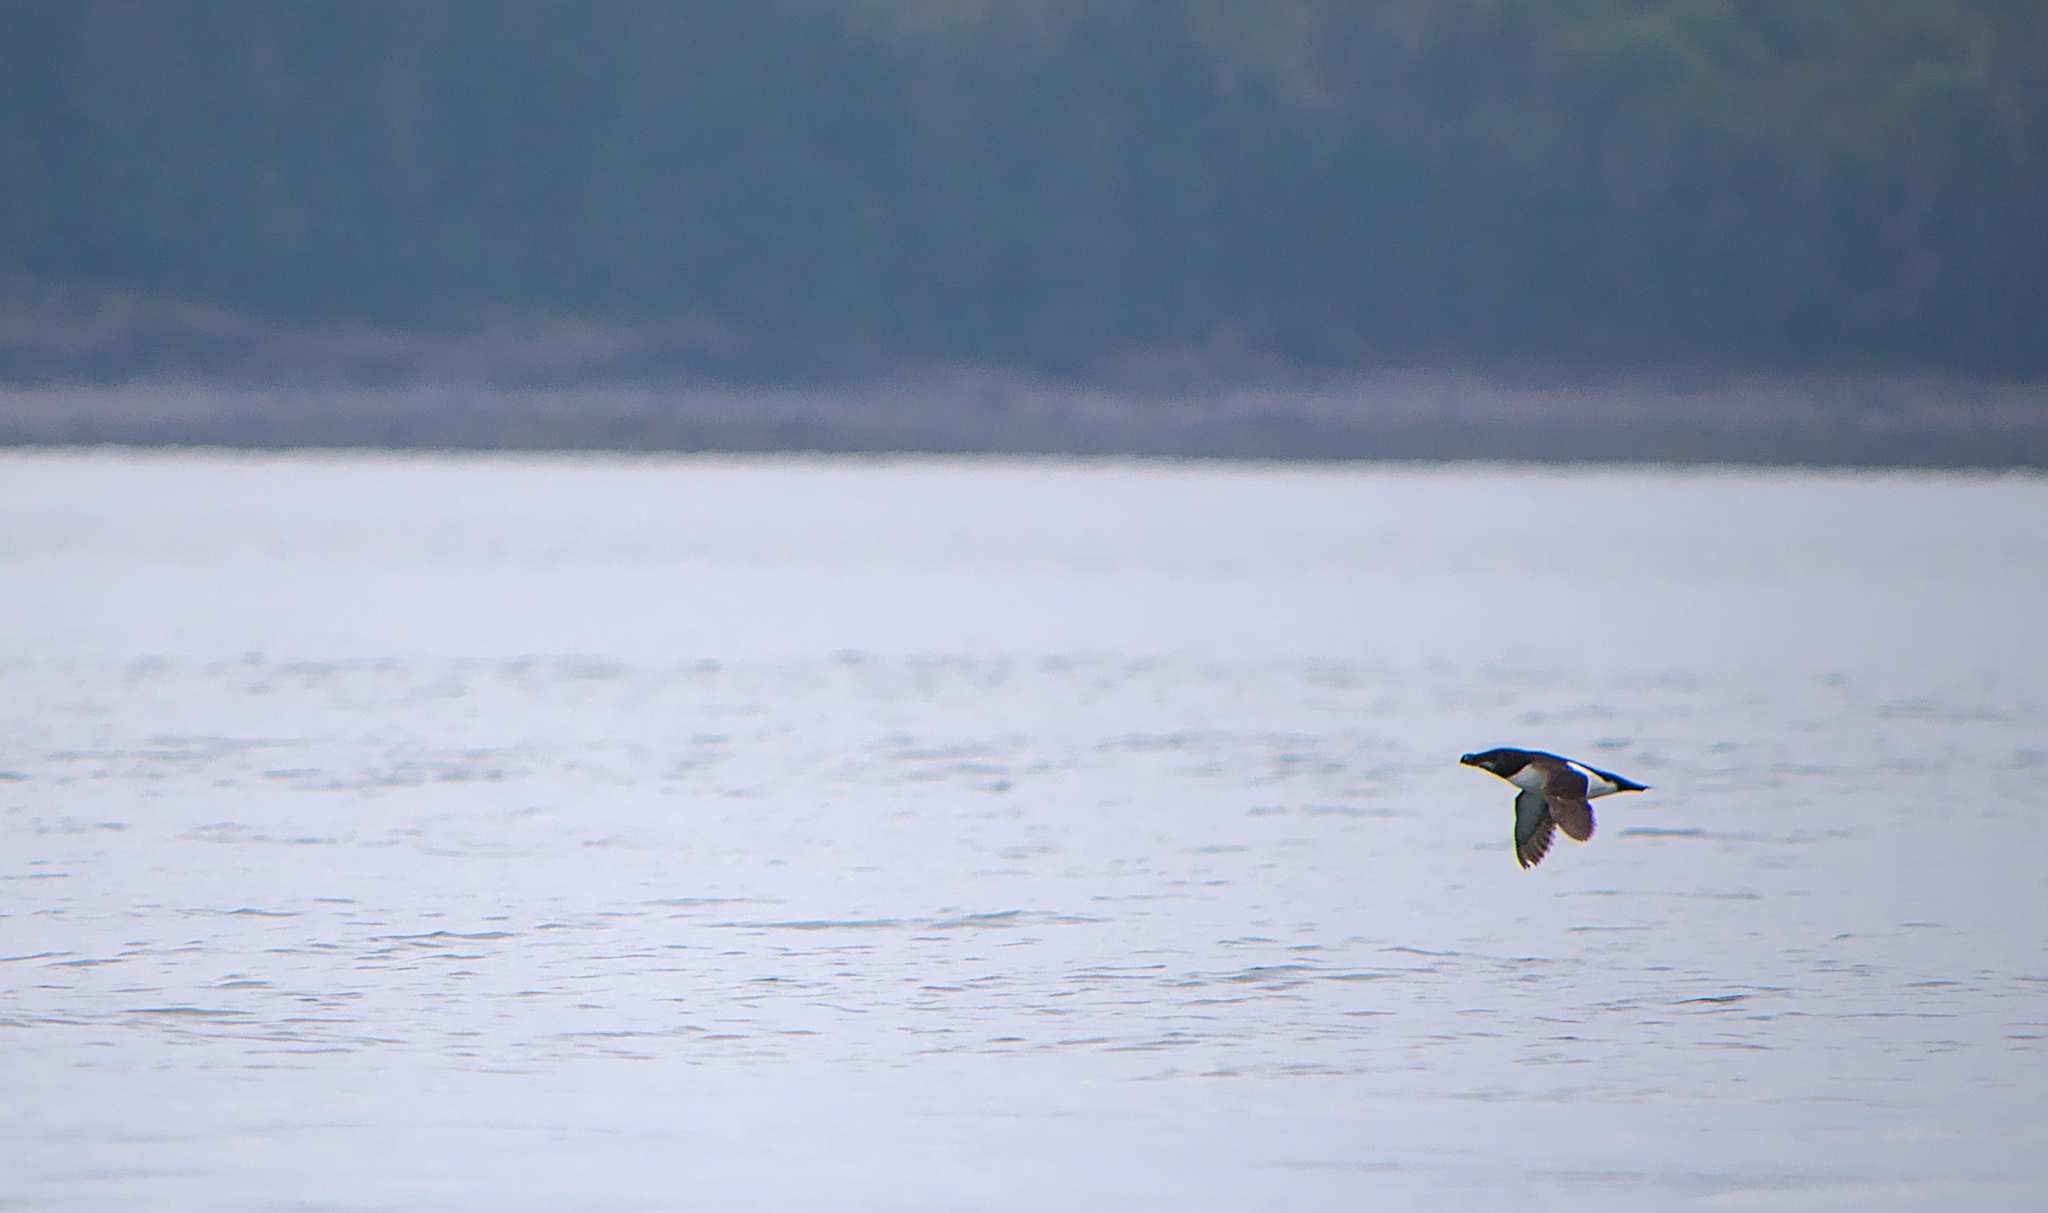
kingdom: Animalia
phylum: Chordata
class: Aves
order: Charadriiformes
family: Alcidae
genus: Alca
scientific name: Alca torda
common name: Razorbill
